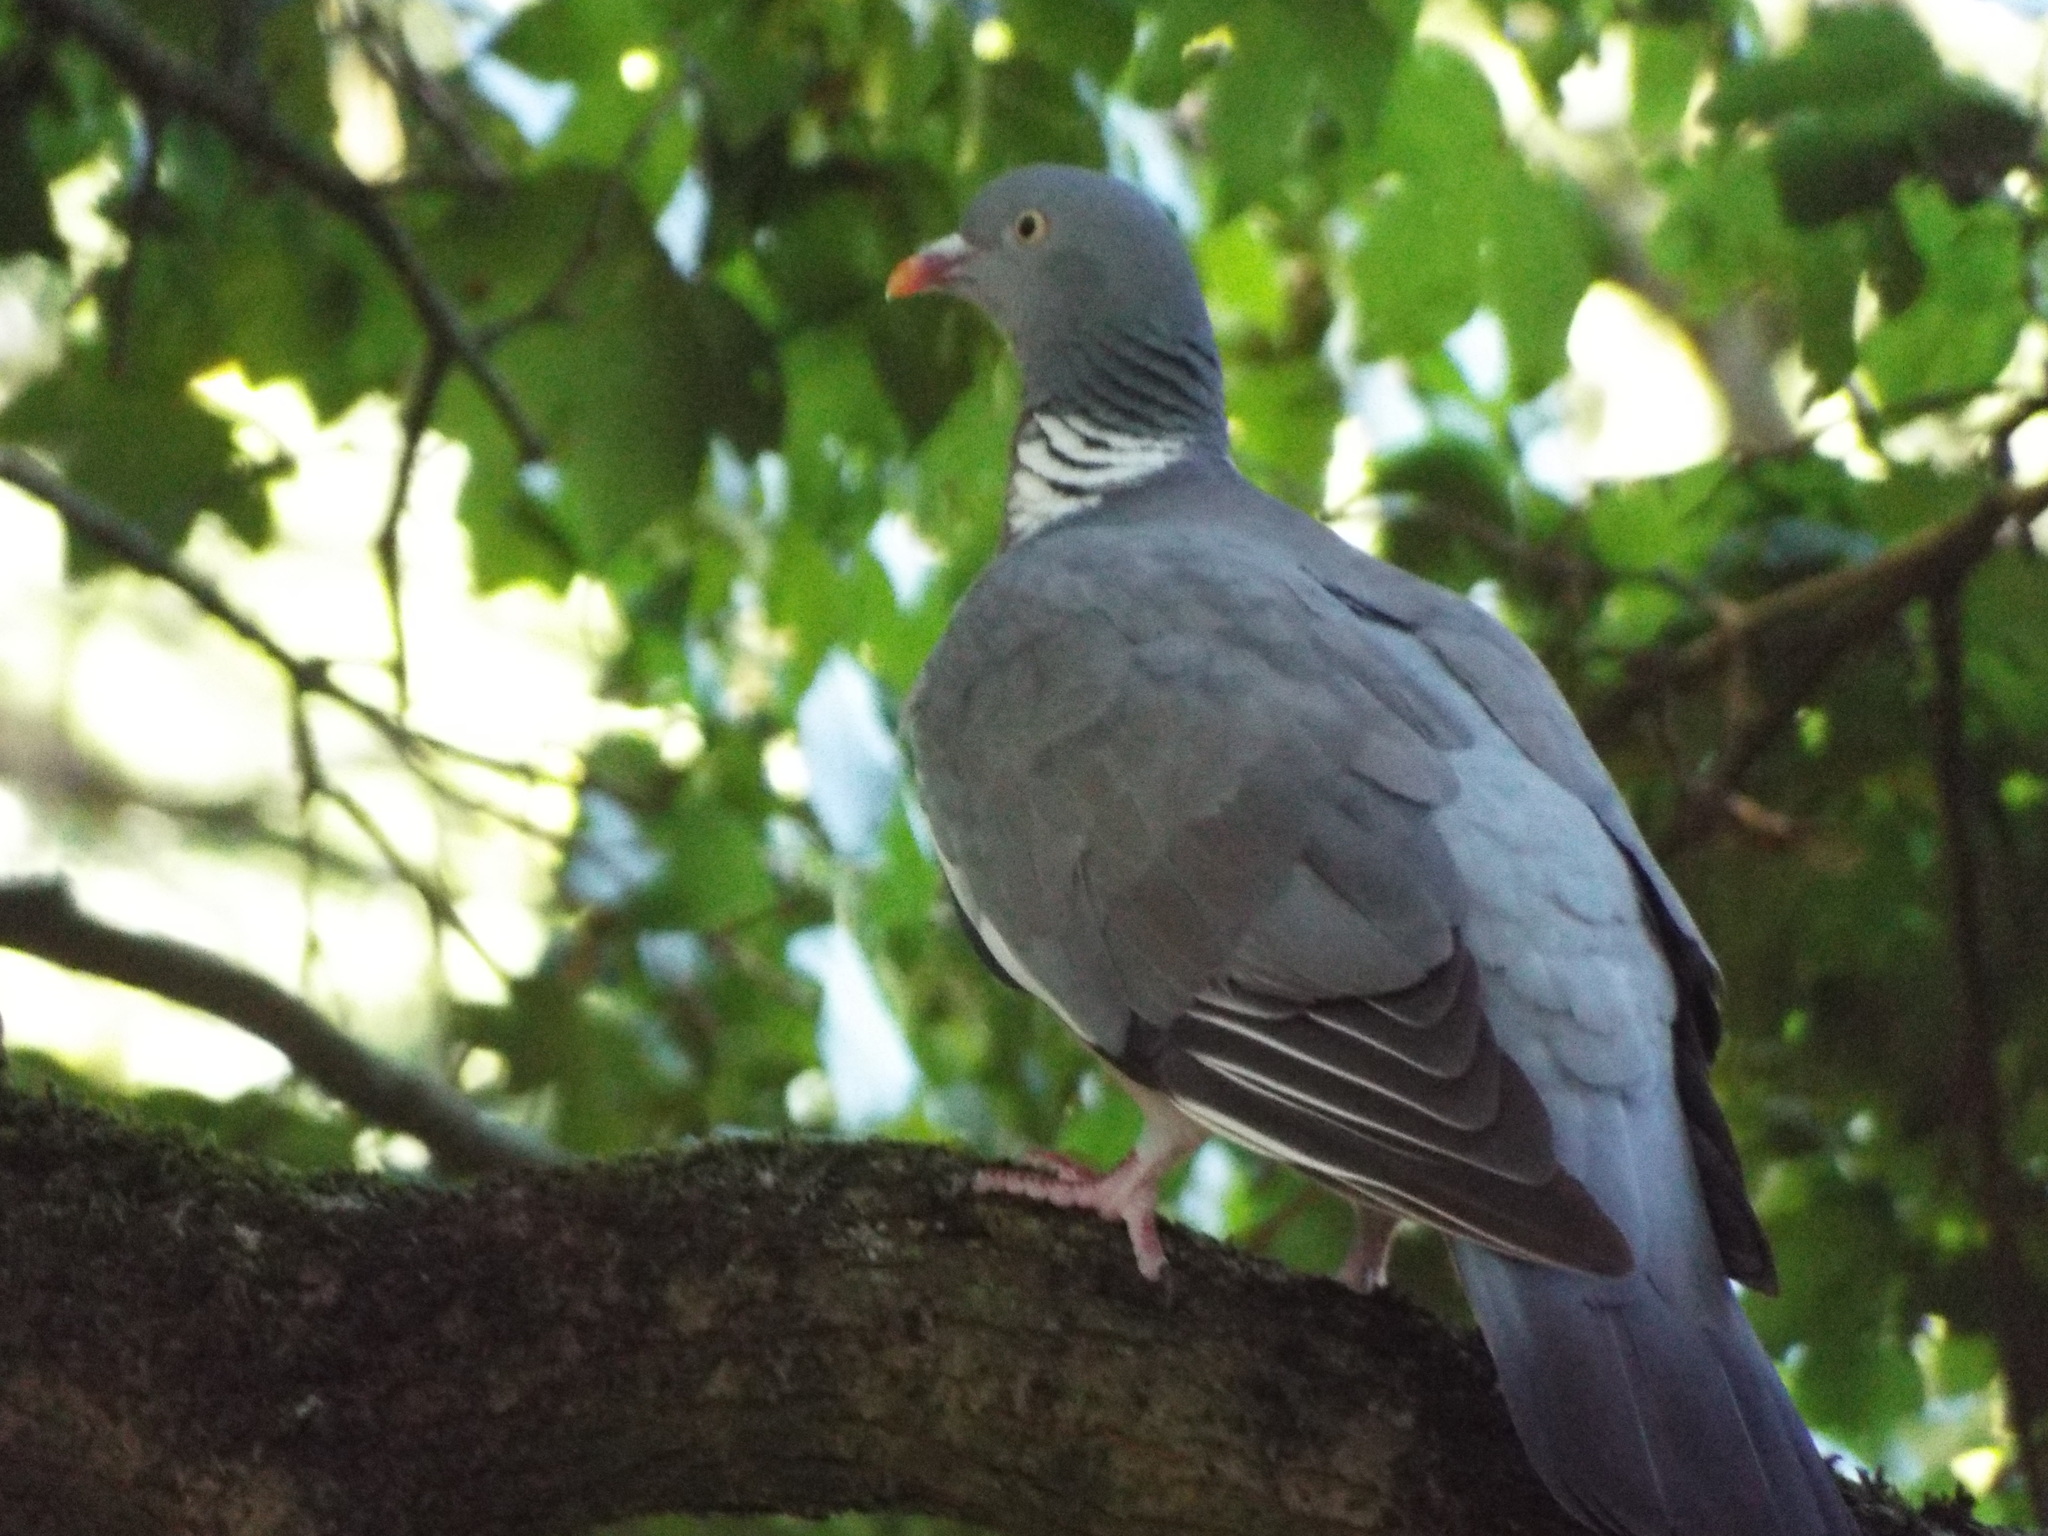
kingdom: Animalia
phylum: Chordata
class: Aves
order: Columbiformes
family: Columbidae
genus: Columba
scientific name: Columba palumbus
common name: Common wood pigeon
